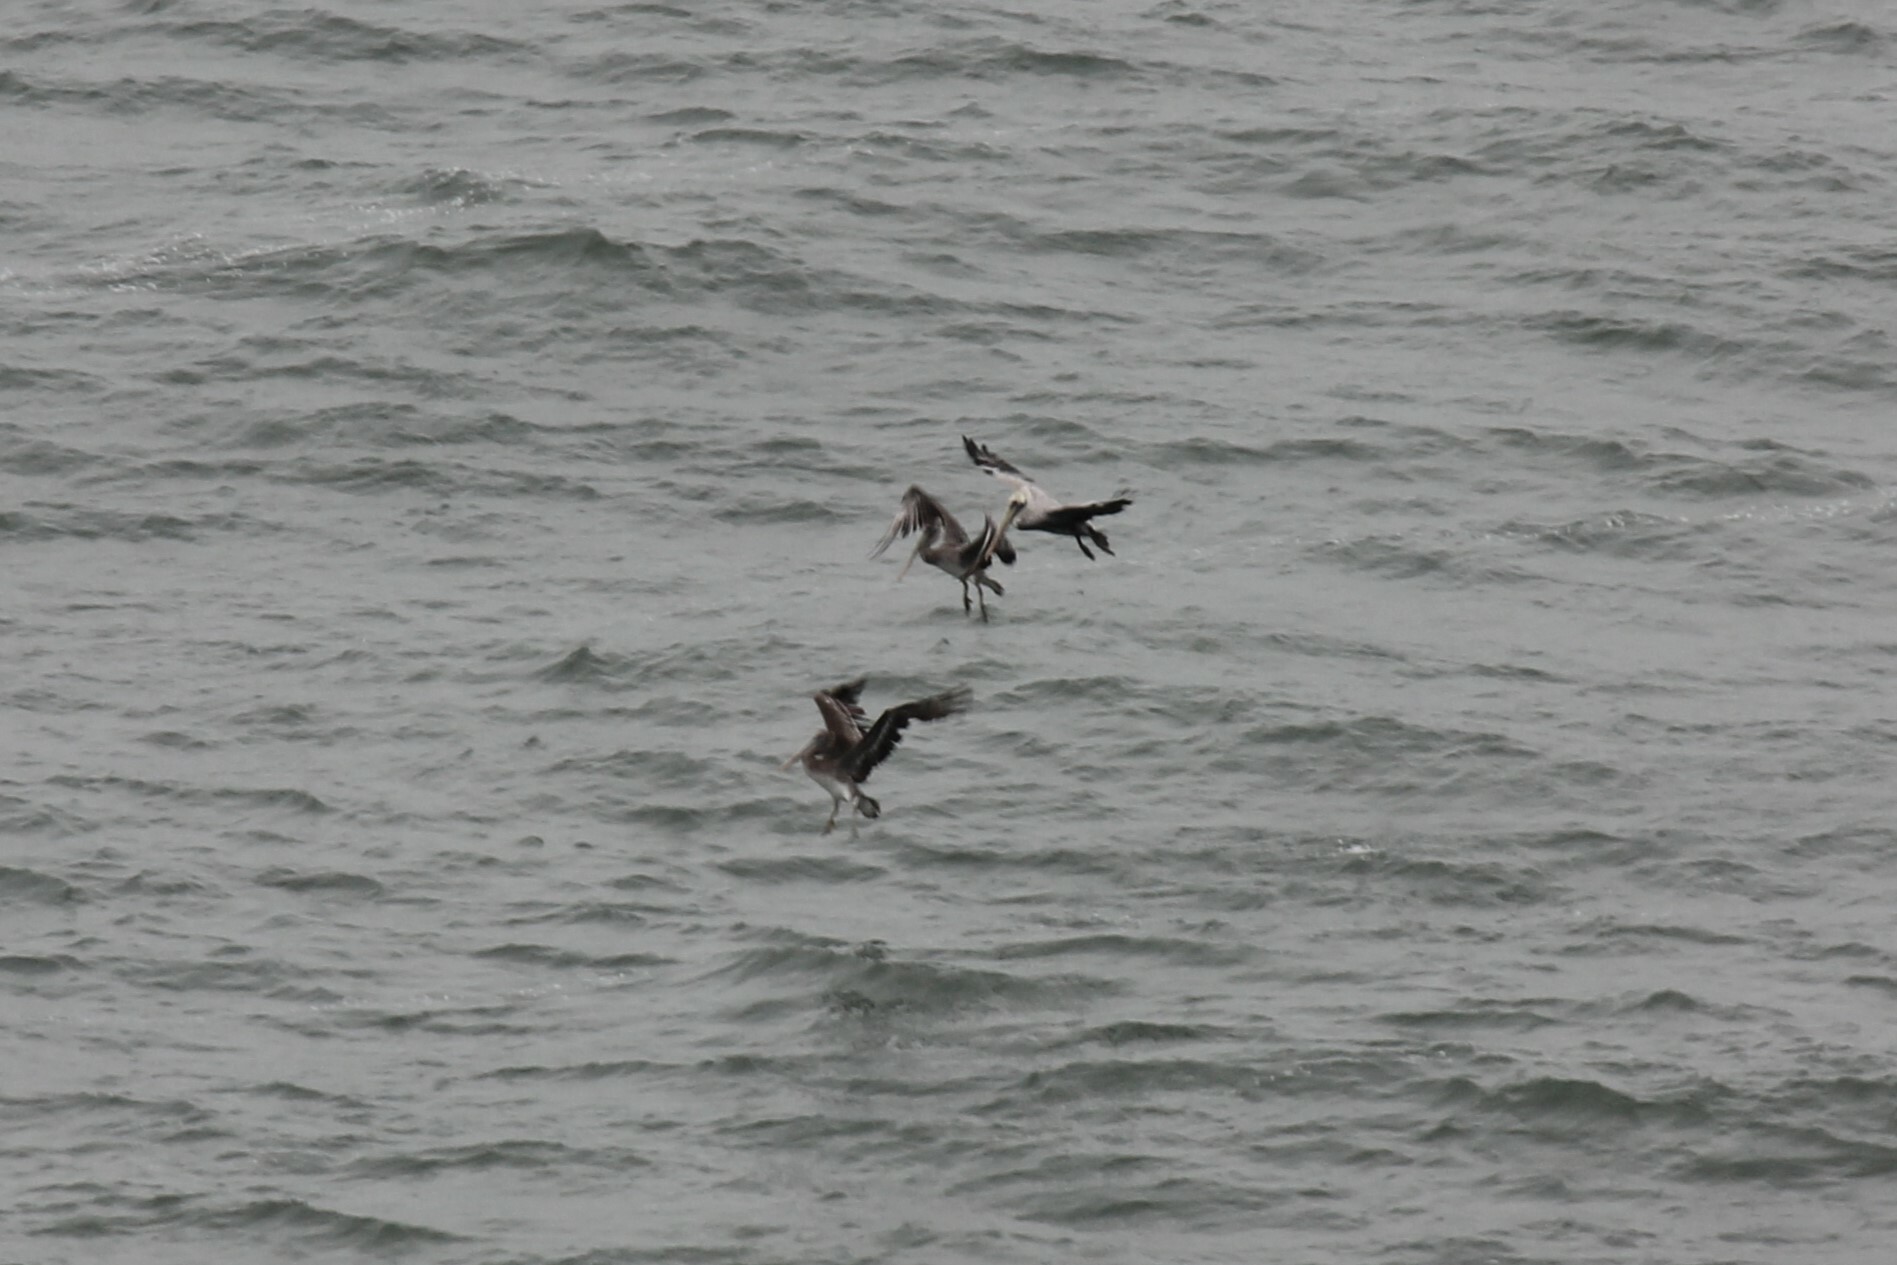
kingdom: Animalia
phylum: Chordata
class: Aves
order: Pelecaniformes
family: Pelecanidae
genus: Pelecanus
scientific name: Pelecanus occidentalis
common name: Brown pelican
